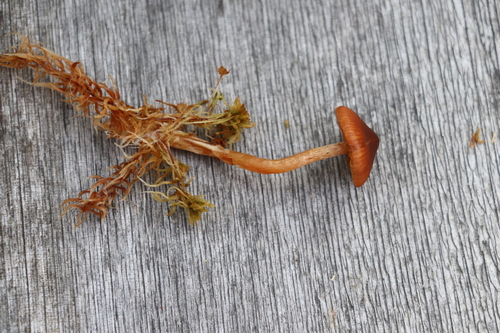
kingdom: Fungi
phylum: Basidiomycota
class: Agaricomycetes
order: Agaricales
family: Cortinariaceae
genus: Cortinarius
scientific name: Cortinarius subfloccopus
